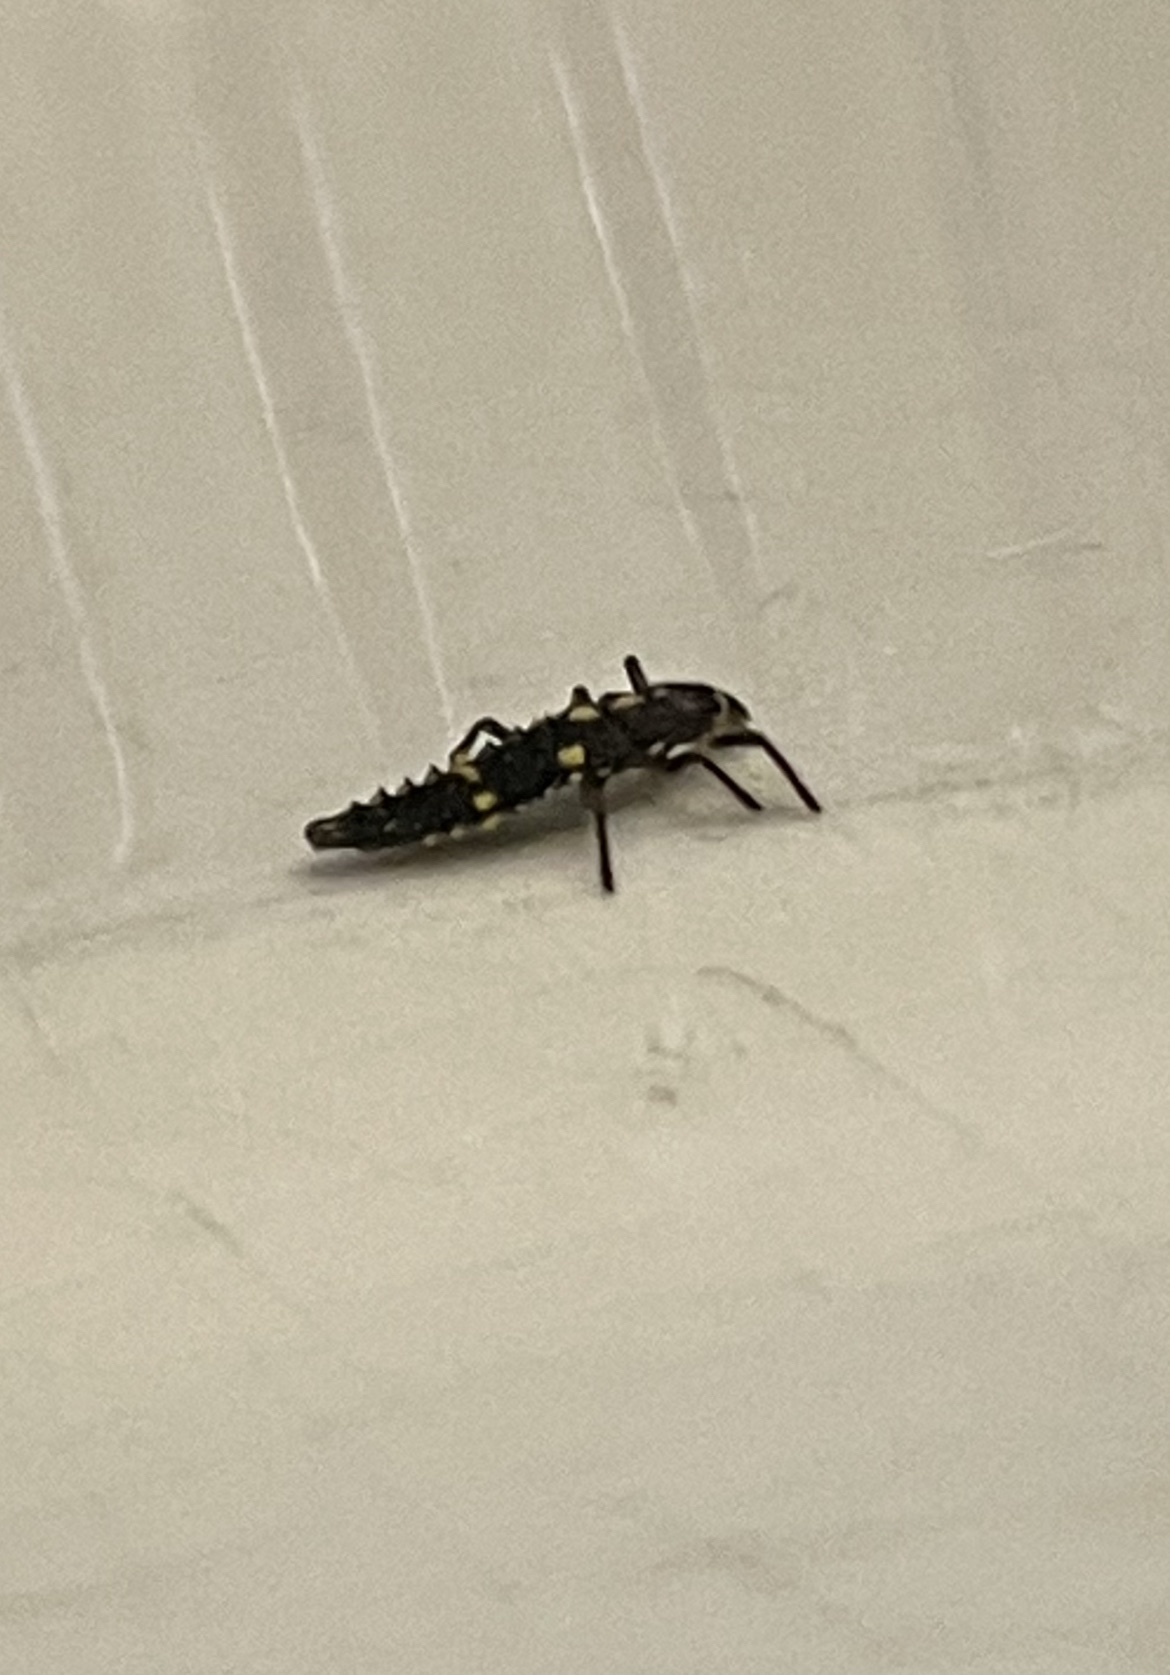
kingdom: Animalia
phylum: Arthropoda
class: Insecta
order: Coleoptera
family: Coccinellidae
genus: Olla
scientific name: Olla v-nigrum
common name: Ashy gray lady beetle
